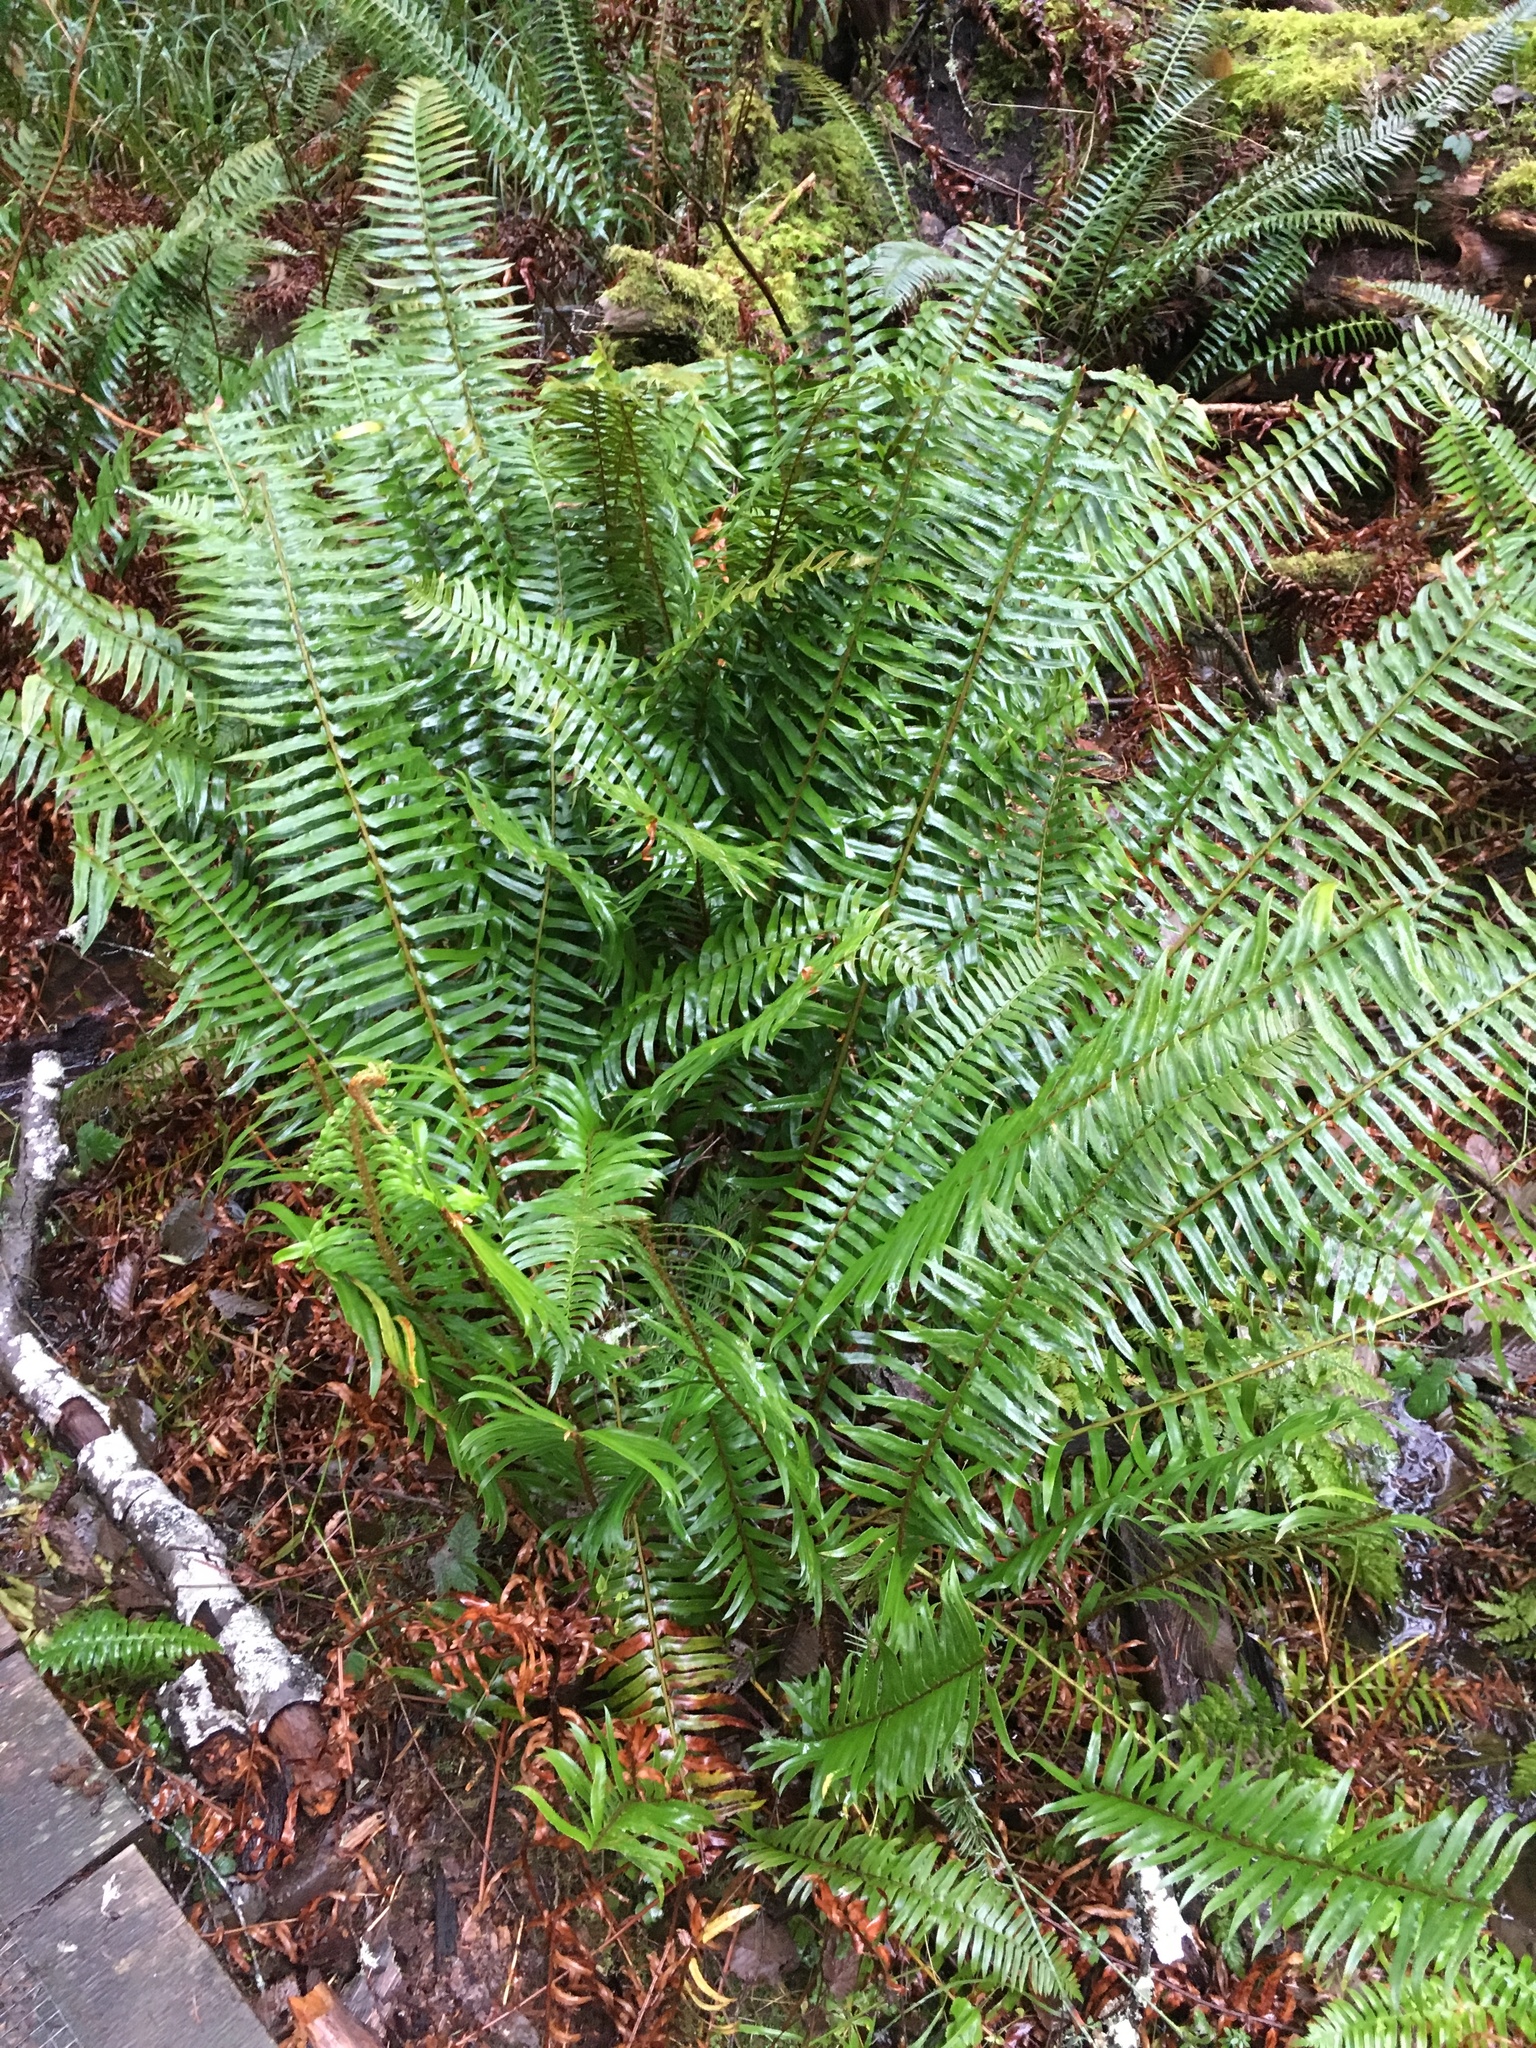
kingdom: Plantae
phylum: Tracheophyta
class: Polypodiopsida
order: Polypodiales
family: Dryopteridaceae
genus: Polystichum
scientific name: Polystichum munitum
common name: Western sword-fern
